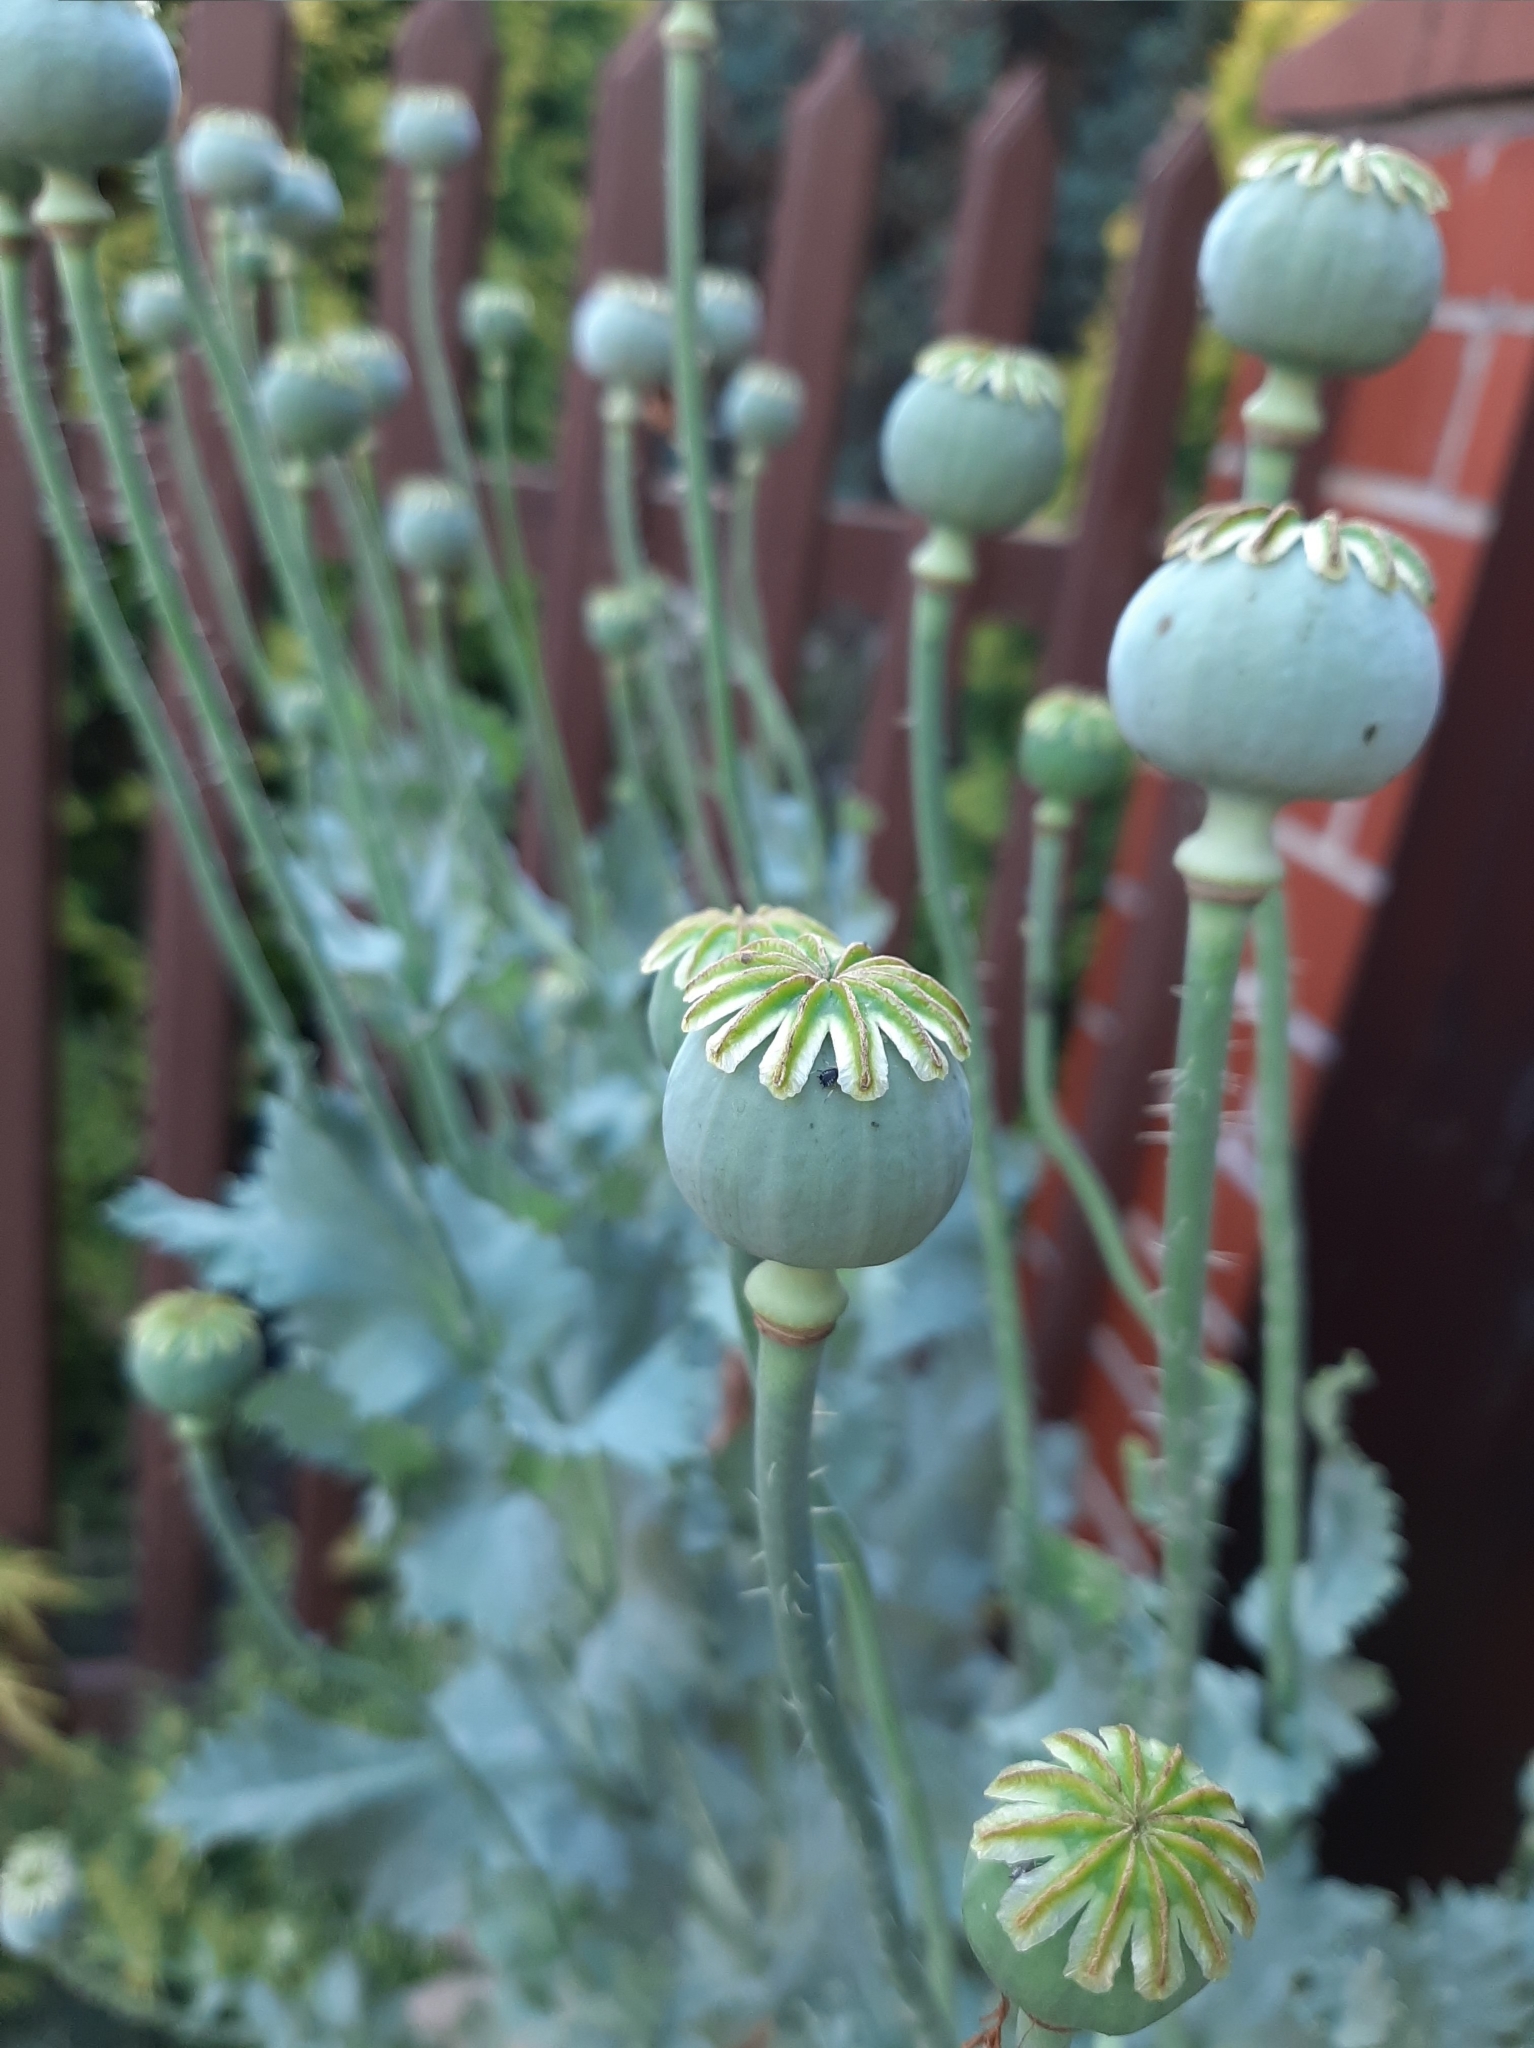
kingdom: Plantae
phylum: Tracheophyta
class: Magnoliopsida
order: Ranunculales
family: Papaveraceae
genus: Papaver
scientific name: Papaver somniferum
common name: Opium poppy
